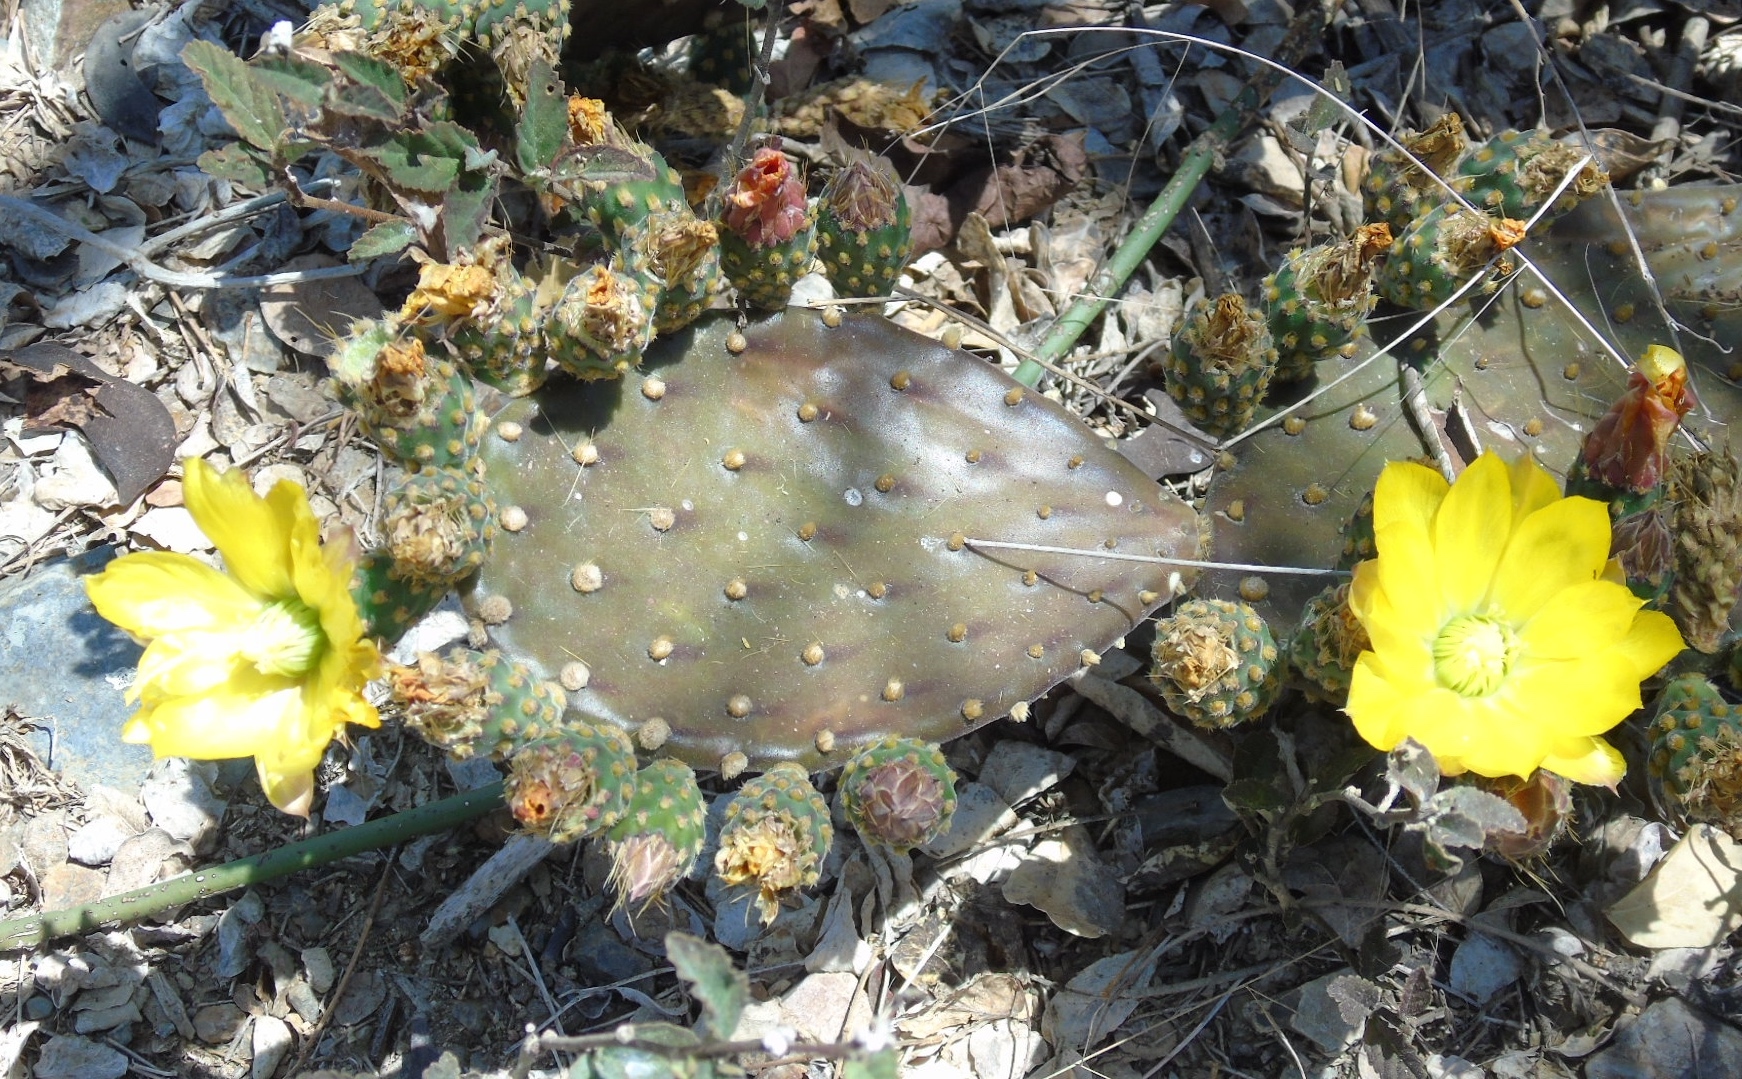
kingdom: Plantae
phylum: Tracheophyta
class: Magnoliopsida
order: Caryophyllales
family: Cactaceae
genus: Opuntia
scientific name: Opuntia decumbens
